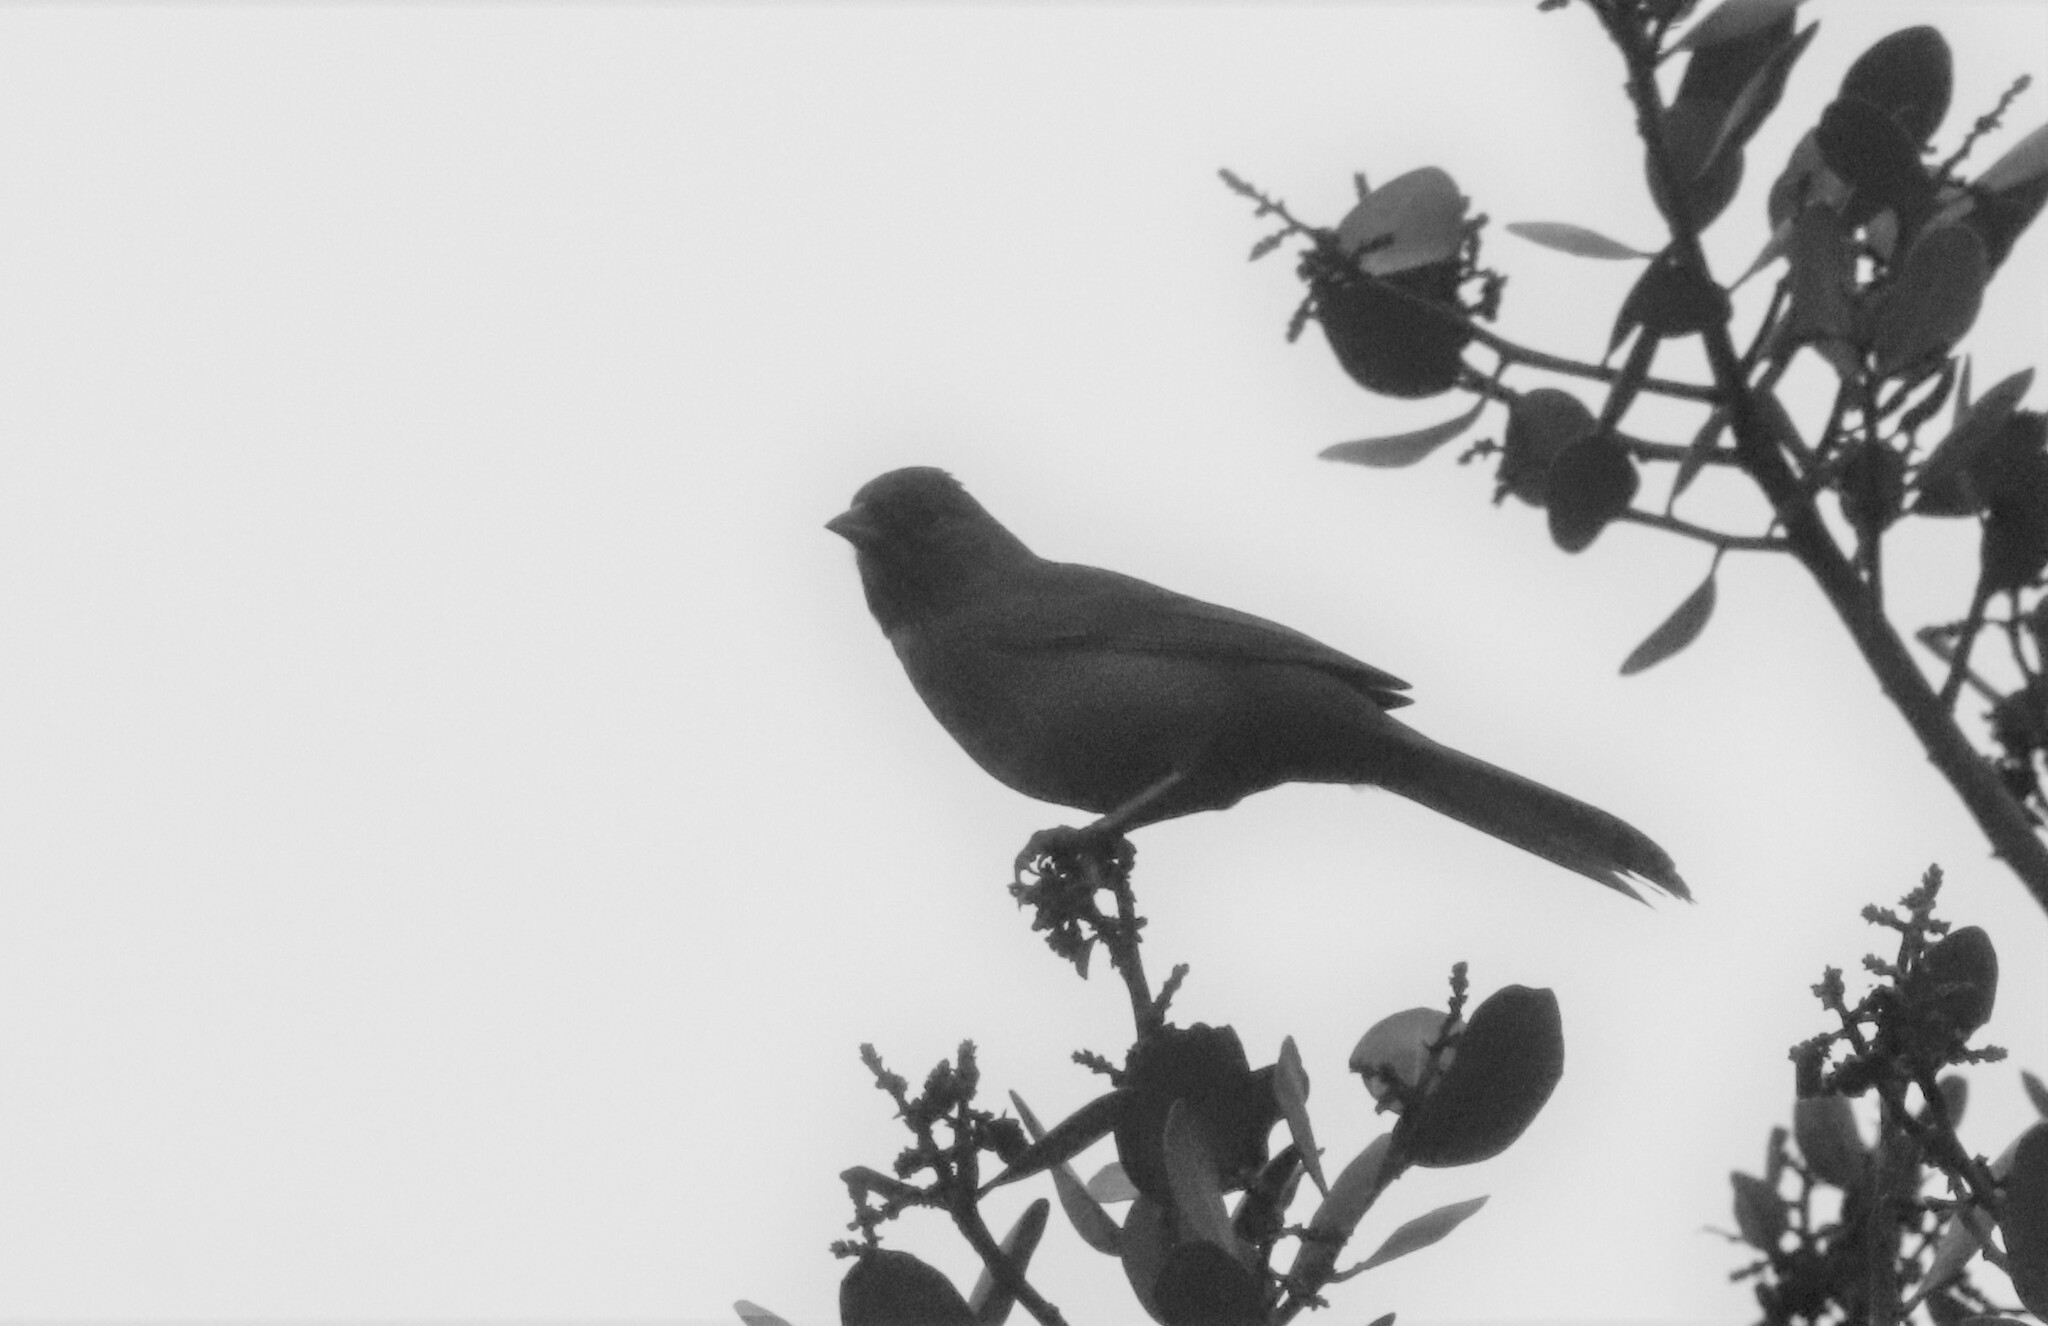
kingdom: Animalia
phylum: Chordata
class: Aves
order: Passeriformes
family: Passerellidae
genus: Melozone
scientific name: Melozone crissalis
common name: California towhee
